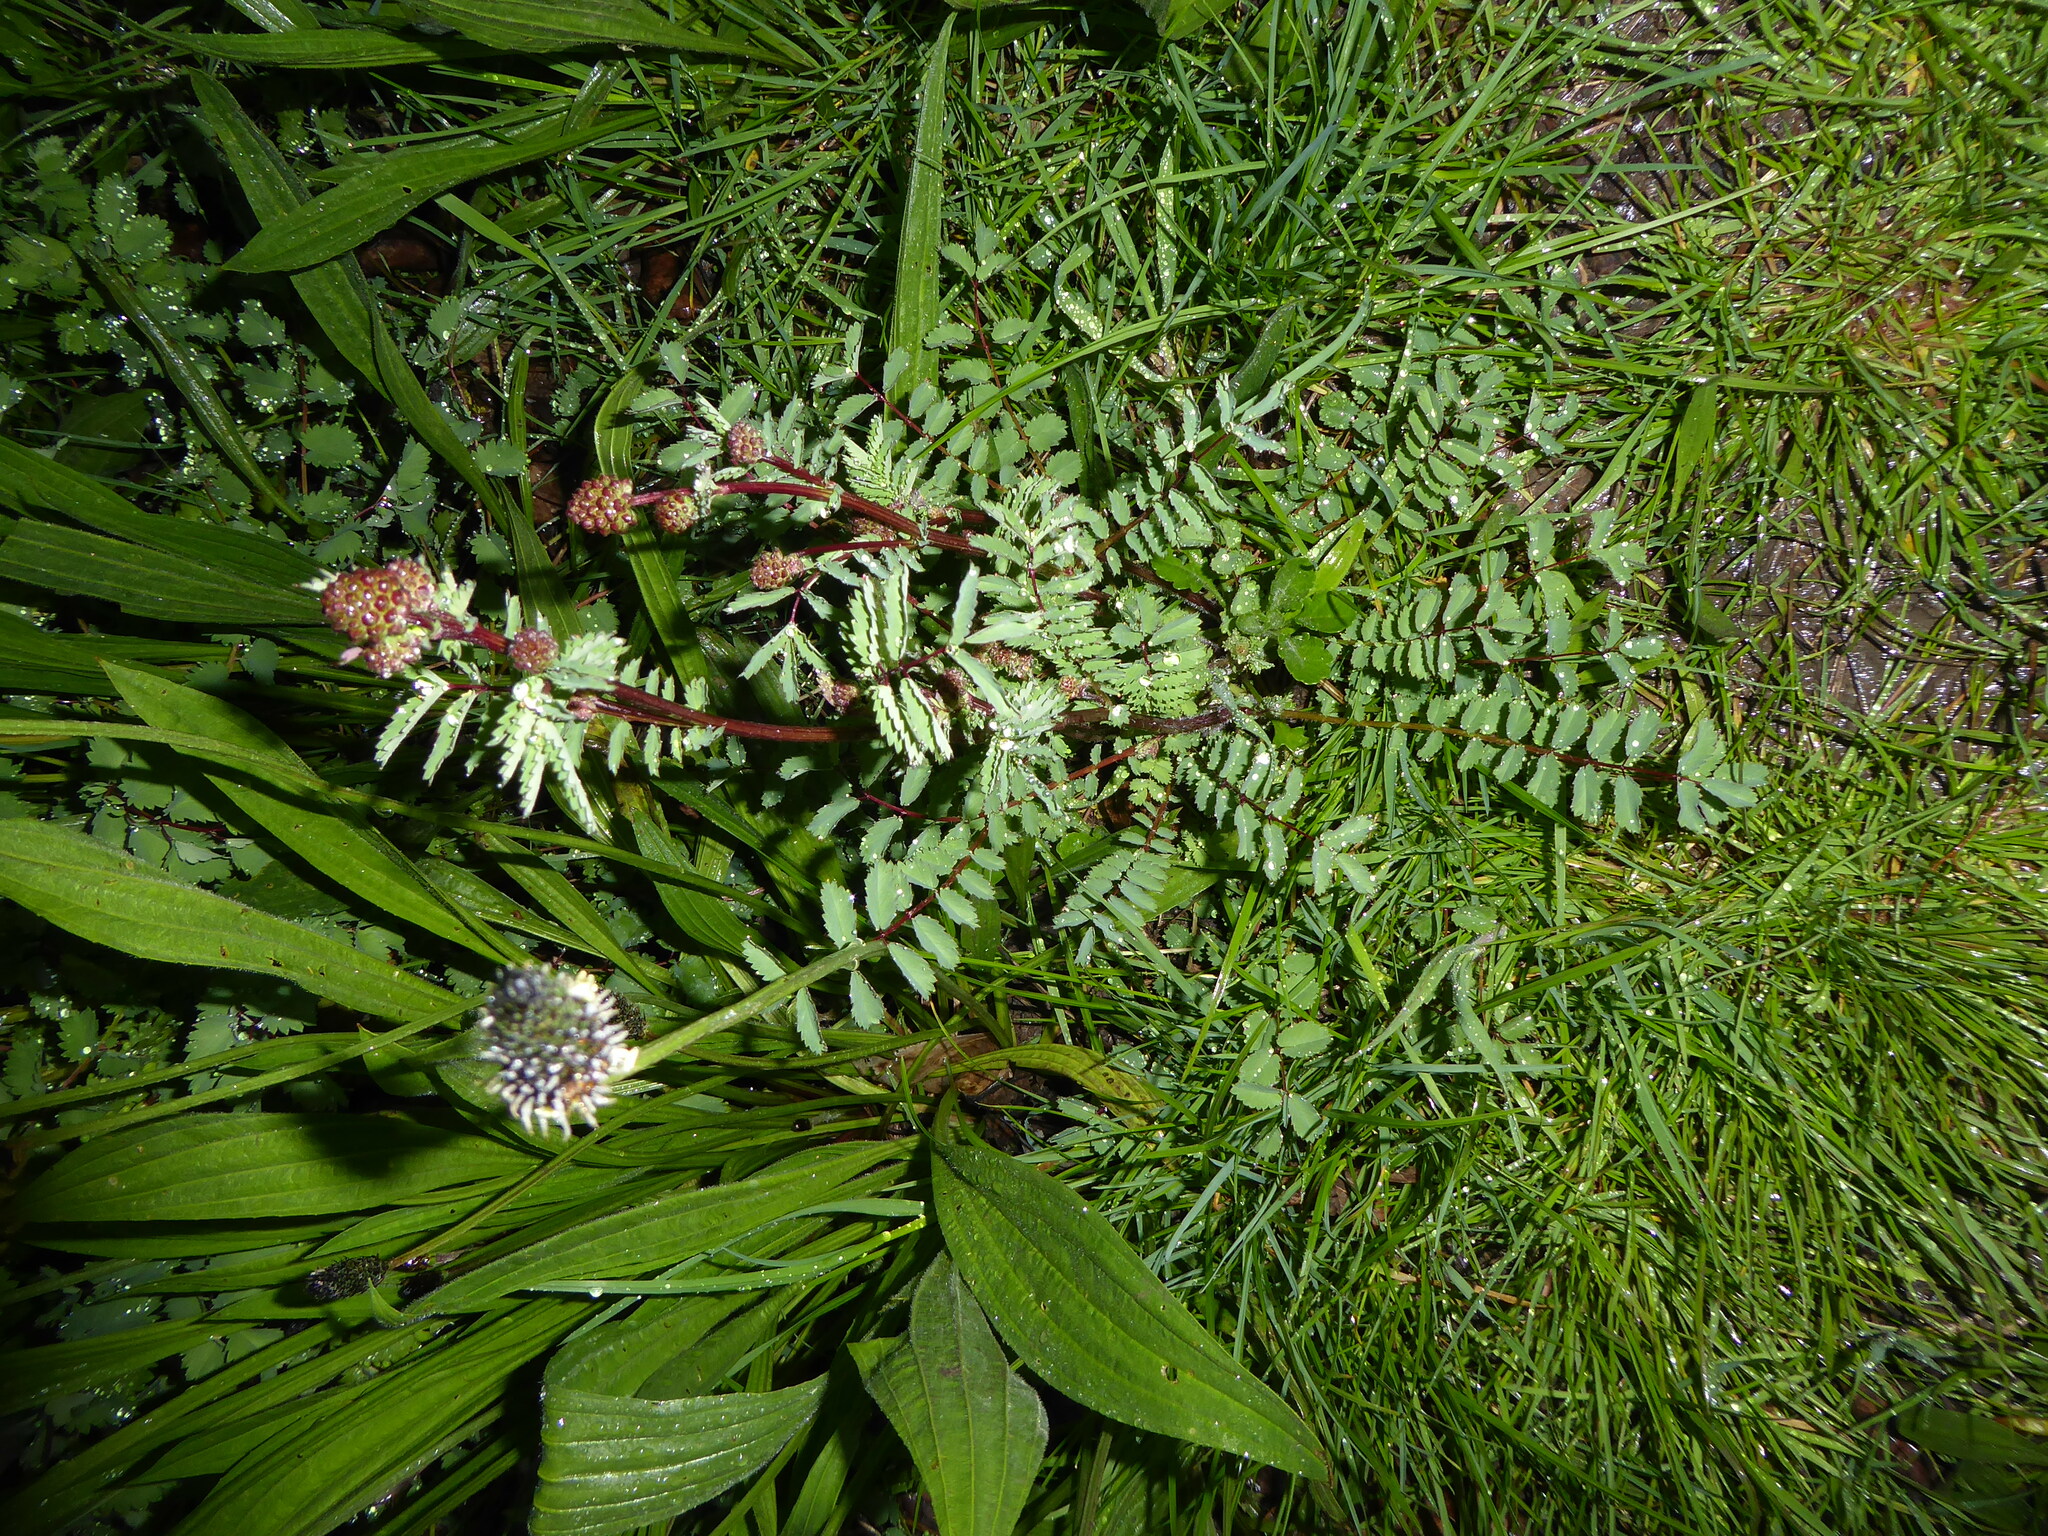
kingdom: Plantae
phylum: Tracheophyta
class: Magnoliopsida
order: Rosales
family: Rosaceae
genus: Poterium
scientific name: Poterium sanguisorba
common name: Salad burnet
